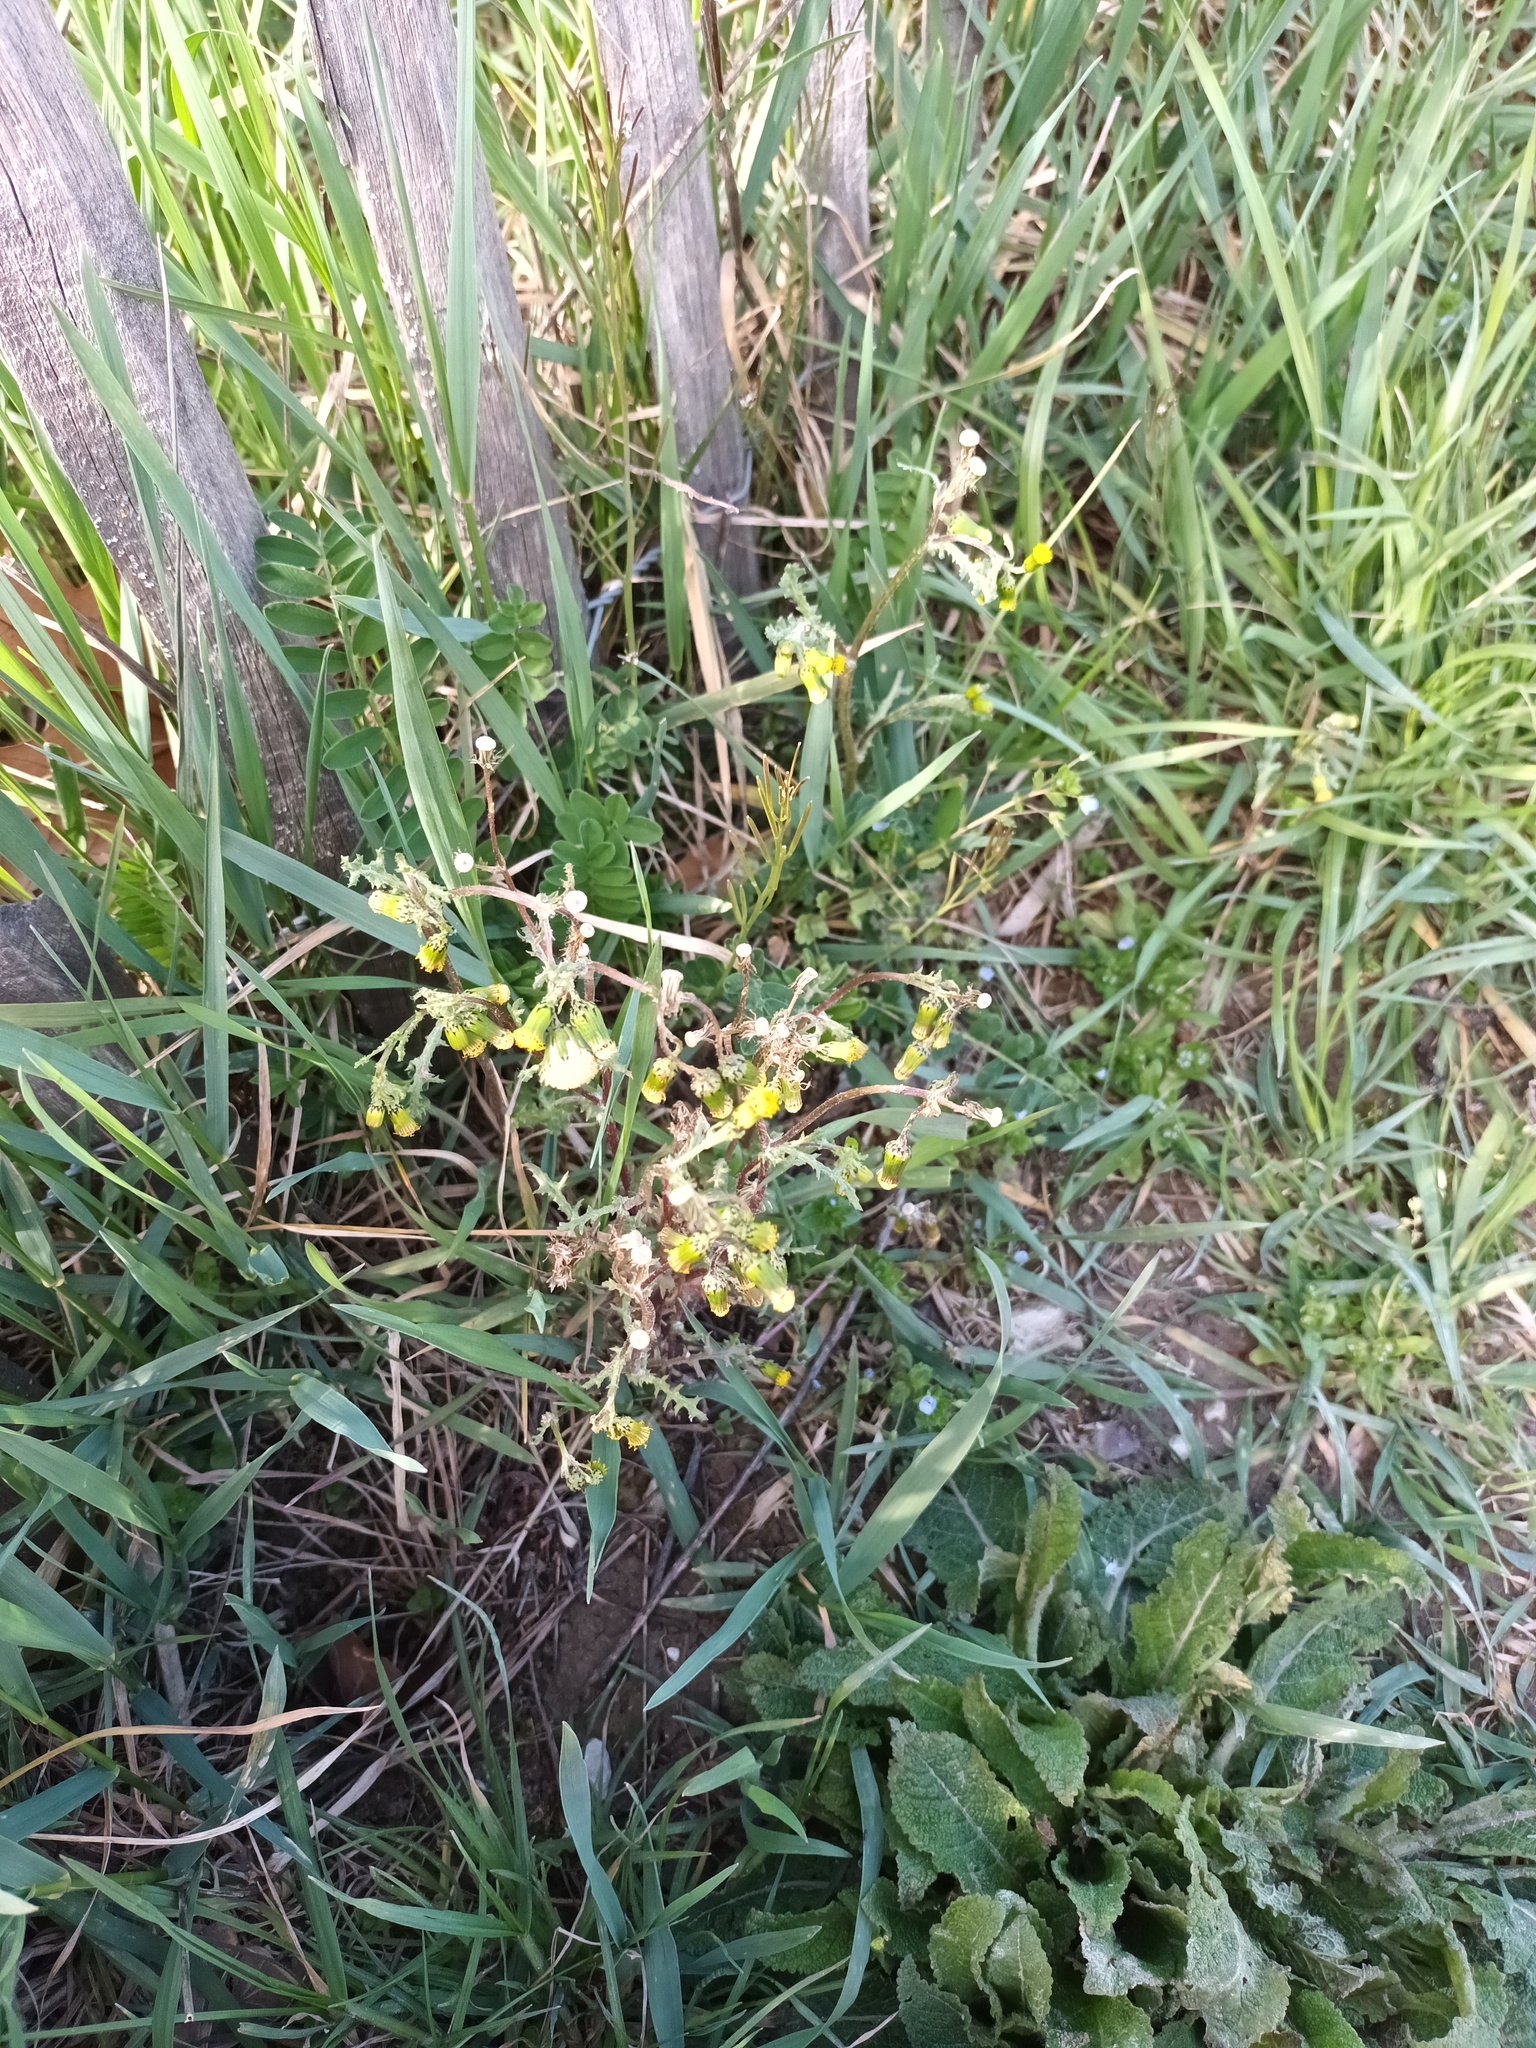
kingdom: Plantae
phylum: Tracheophyta
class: Magnoliopsida
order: Asterales
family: Asteraceae
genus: Senecio
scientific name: Senecio vulgaris
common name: Old-man-in-the-spring
